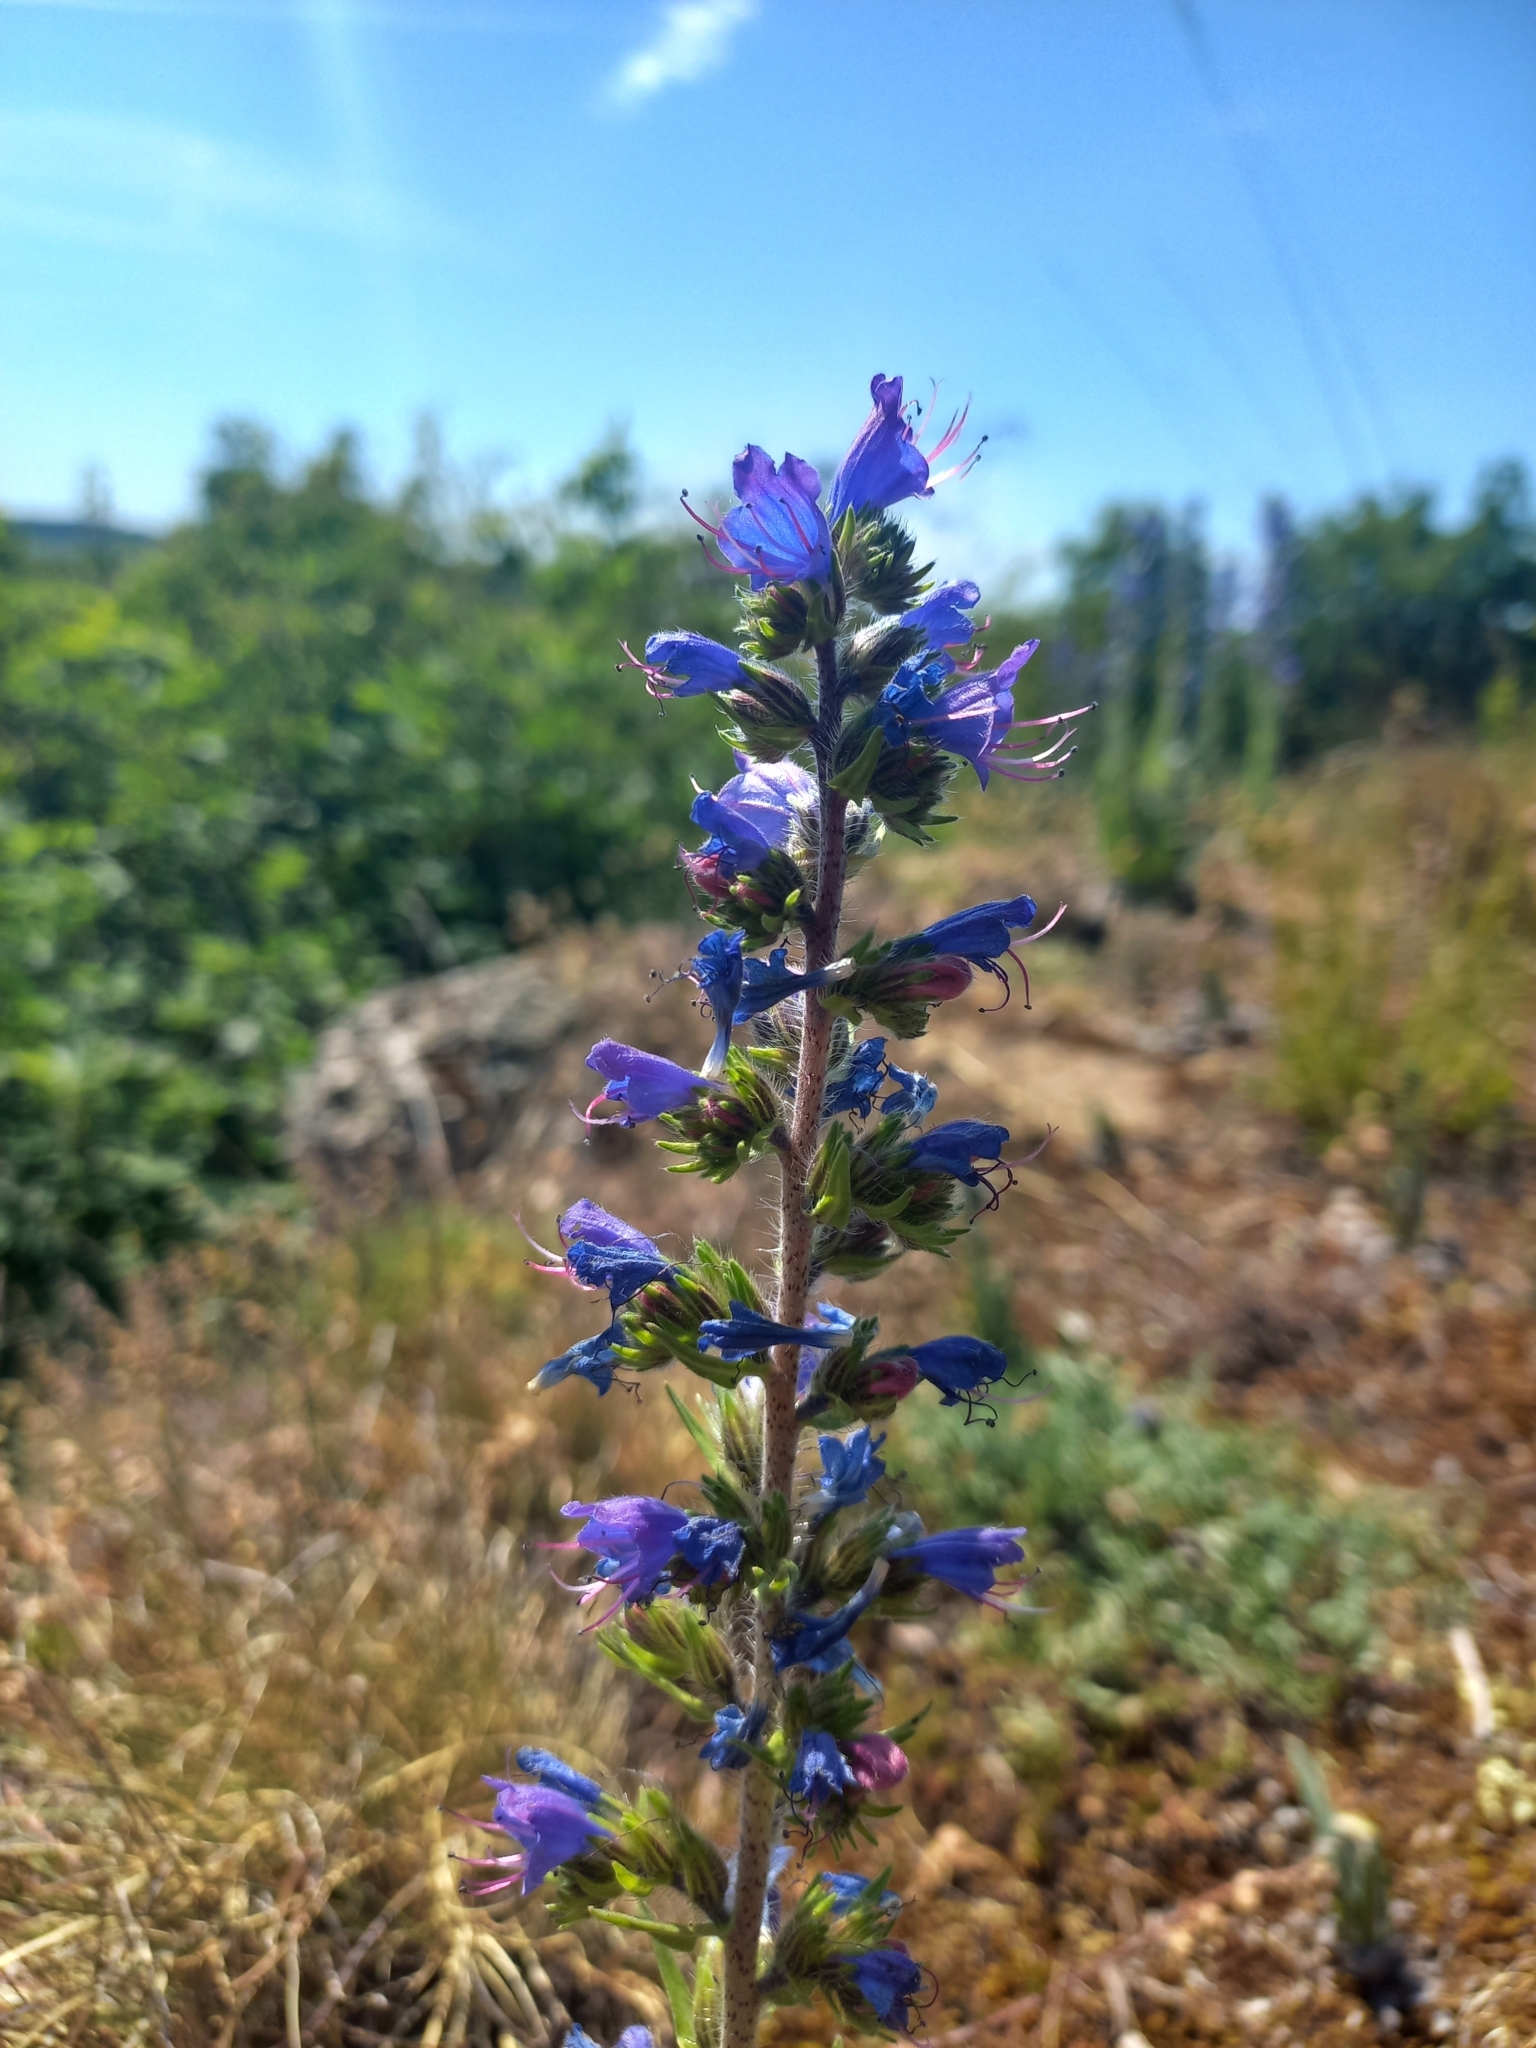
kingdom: Plantae
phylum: Tracheophyta
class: Magnoliopsida
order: Boraginales
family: Boraginaceae
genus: Echium
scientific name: Echium vulgare
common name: Common viper's bugloss
